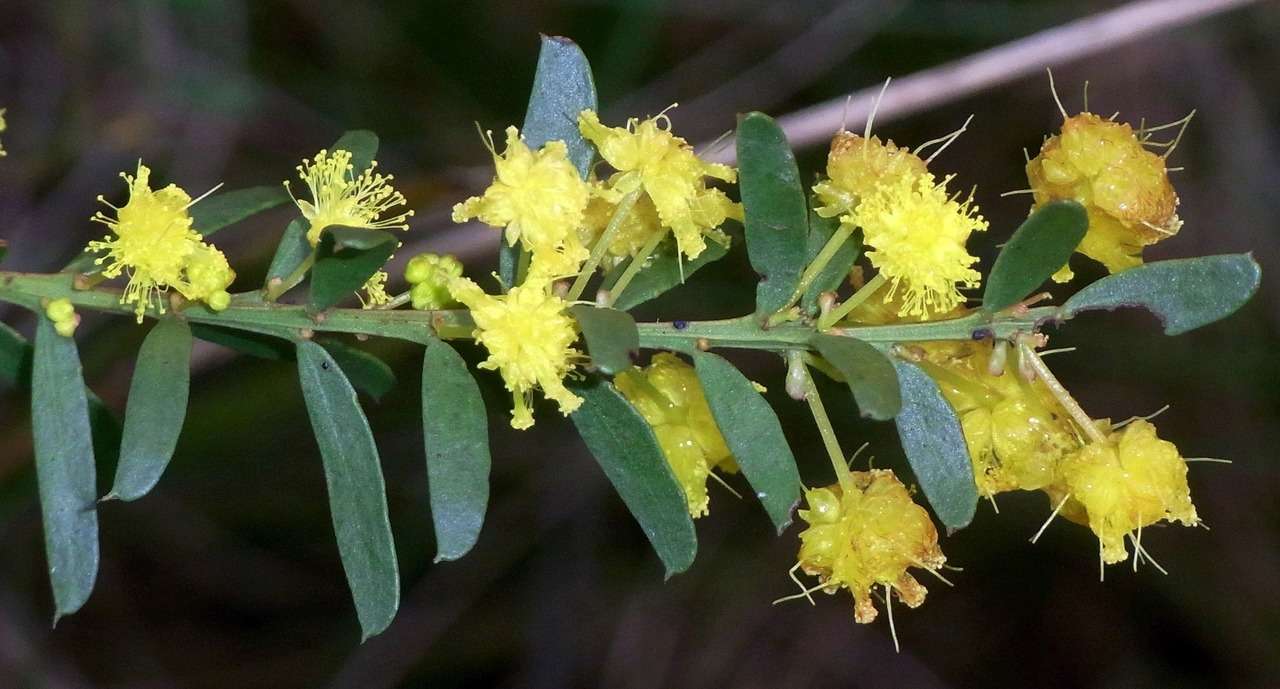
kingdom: Plantae
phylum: Tracheophyta
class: Magnoliopsida
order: Fabales
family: Fabaceae
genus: Acacia
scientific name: Acacia acinacea
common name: Gold-dust acacia
